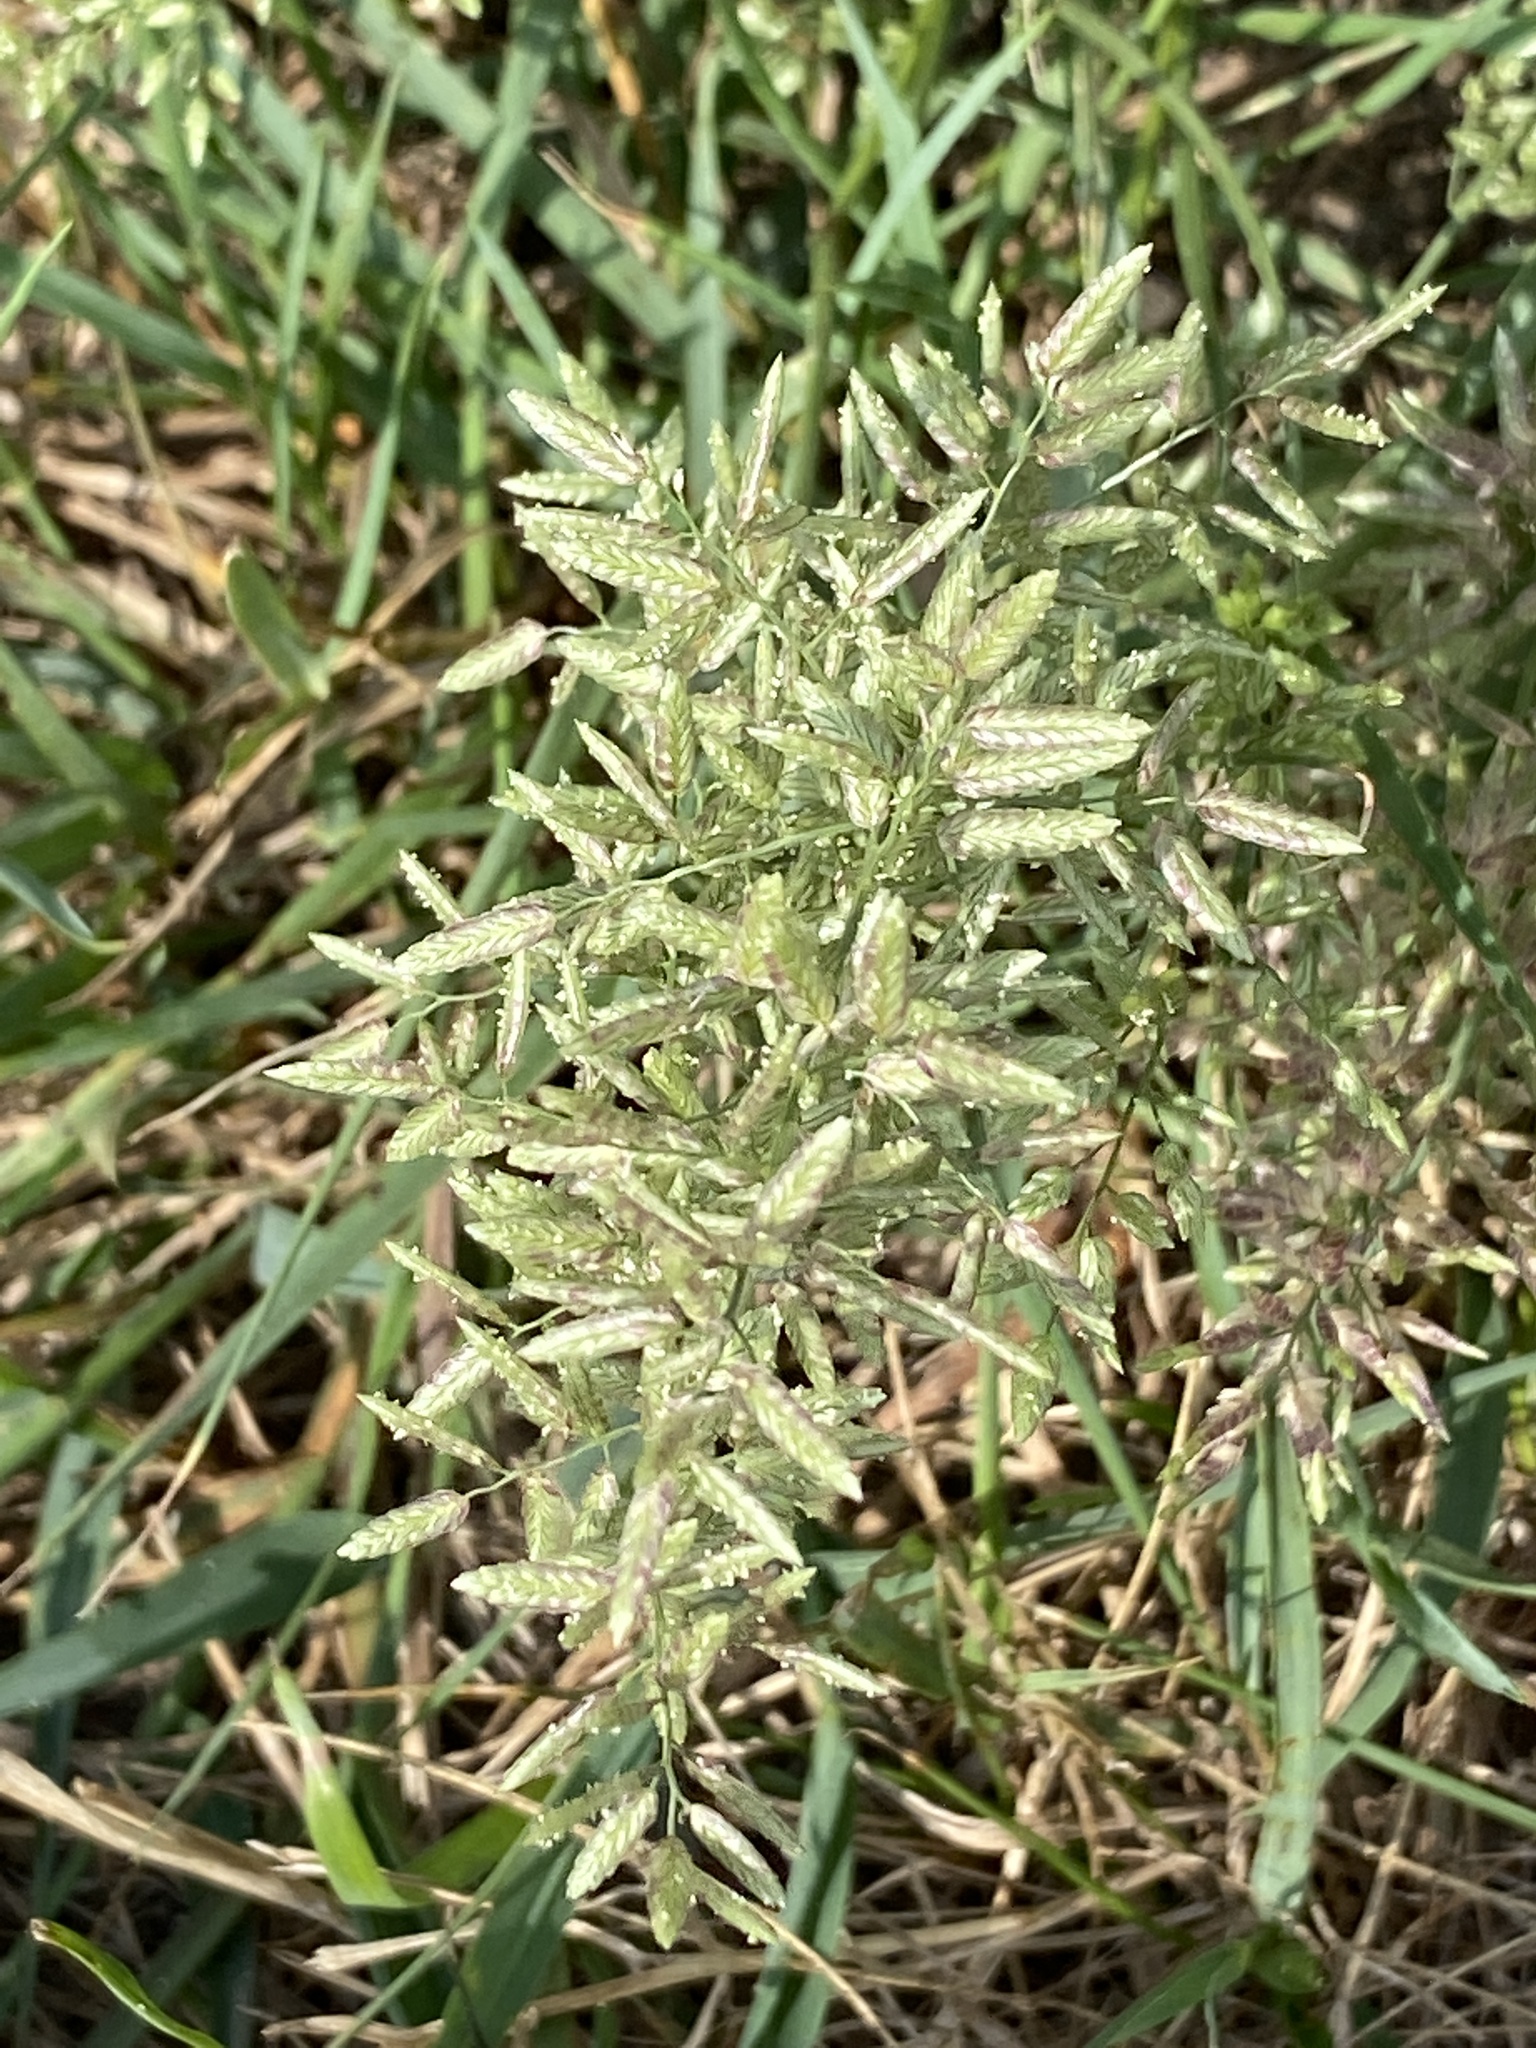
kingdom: Plantae
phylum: Tracheophyta
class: Liliopsida
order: Poales
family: Poaceae
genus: Eragrostis
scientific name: Eragrostis cilianensis
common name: Stinkgrass
